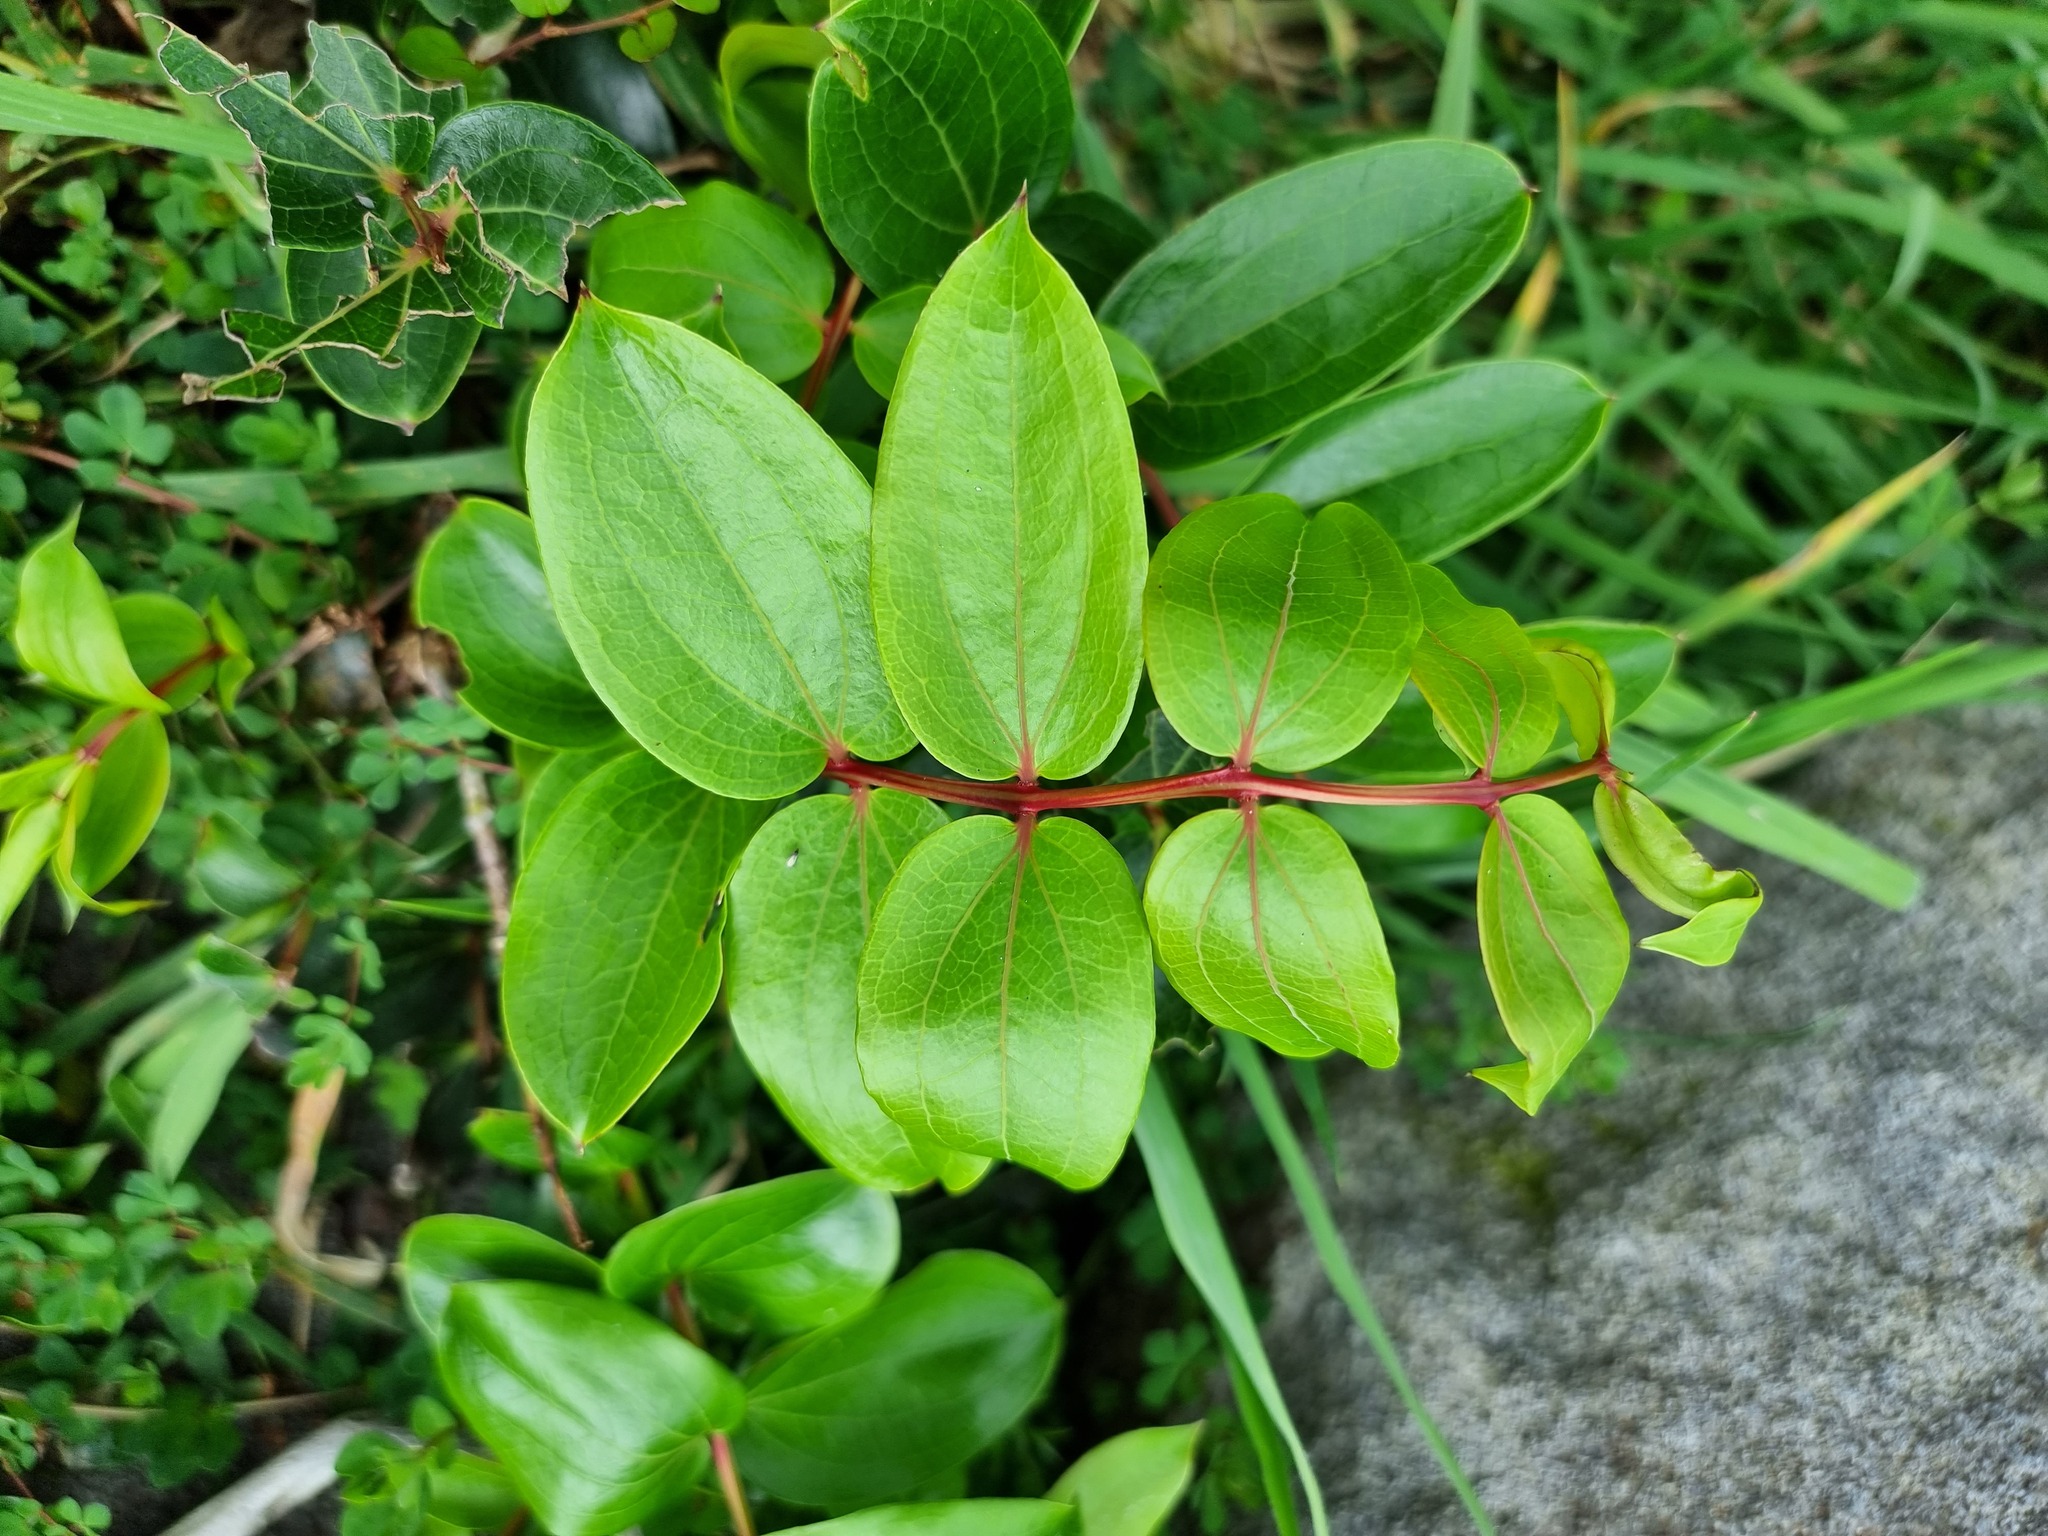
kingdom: Plantae
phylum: Tracheophyta
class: Magnoliopsida
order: Cucurbitales
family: Coriariaceae
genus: Coriaria
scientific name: Coriaria arborea
